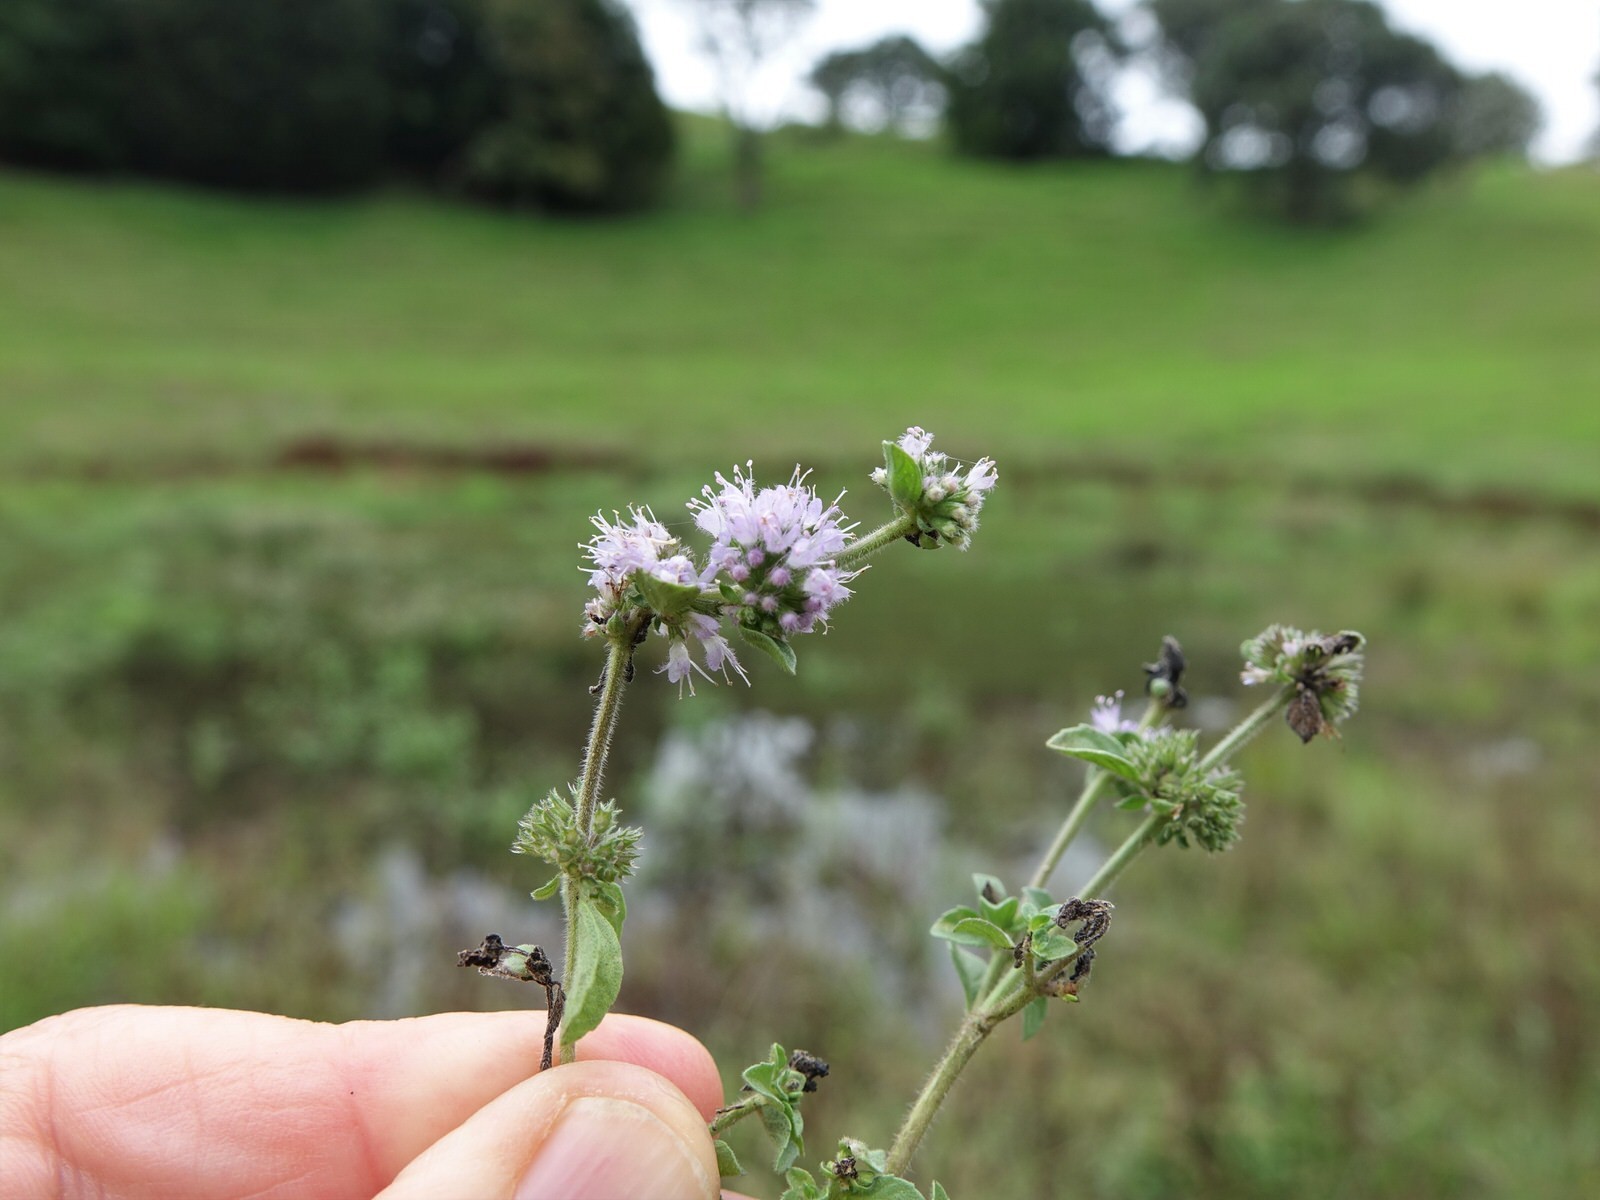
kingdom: Plantae
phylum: Tracheophyta
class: Magnoliopsida
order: Lamiales
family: Lamiaceae
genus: Mentha
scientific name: Mentha pulegium
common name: Pennyroyal
